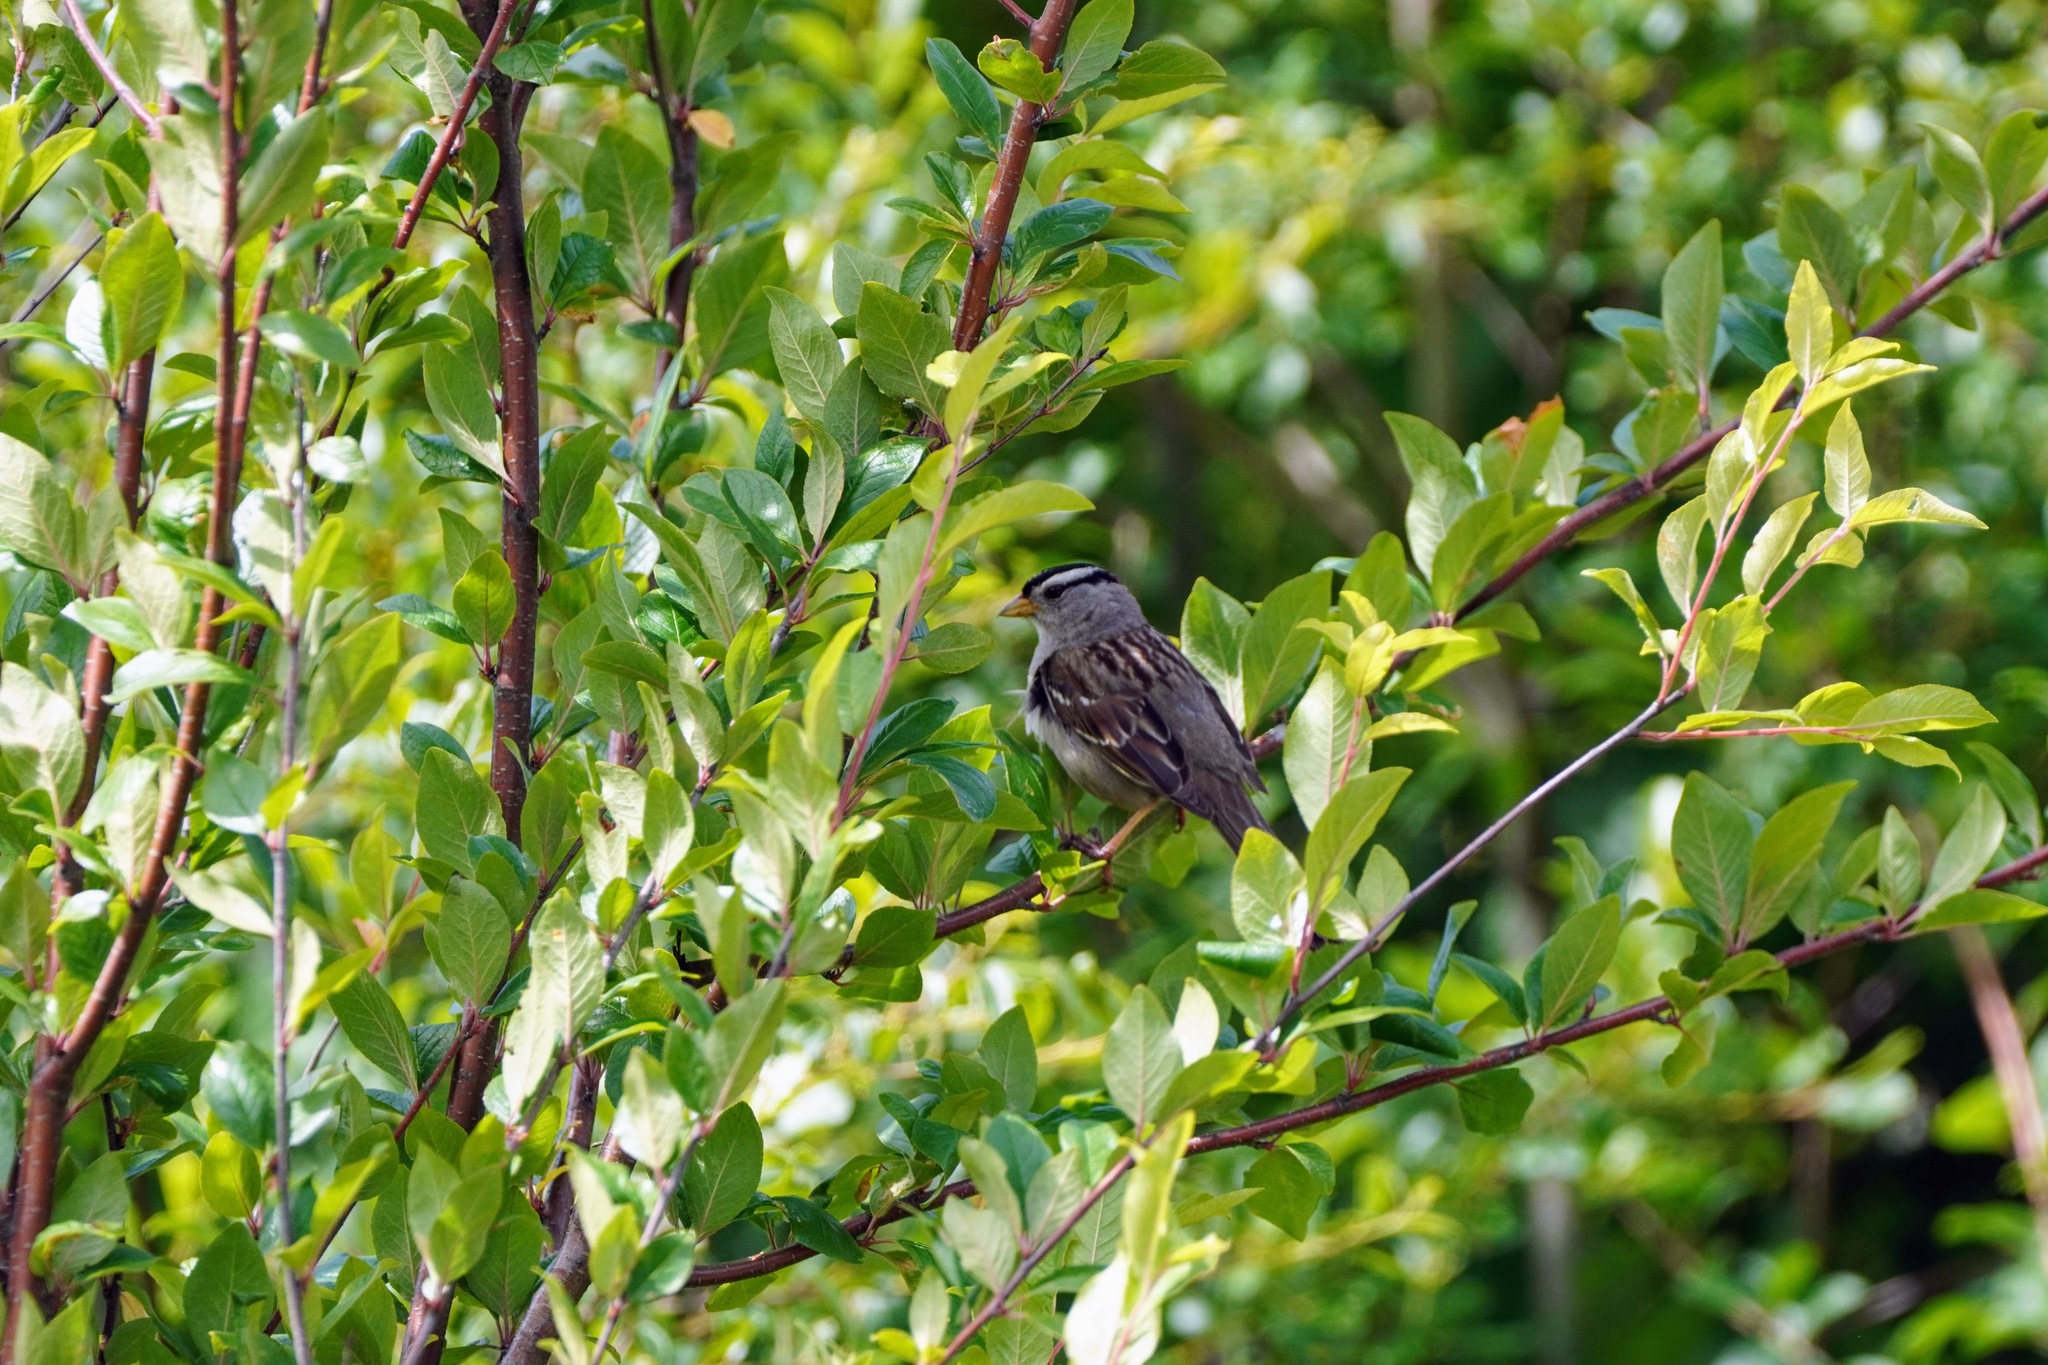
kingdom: Animalia
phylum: Chordata
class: Aves
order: Passeriformes
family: Passerellidae
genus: Zonotrichia
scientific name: Zonotrichia leucophrys
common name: White-crowned sparrow
